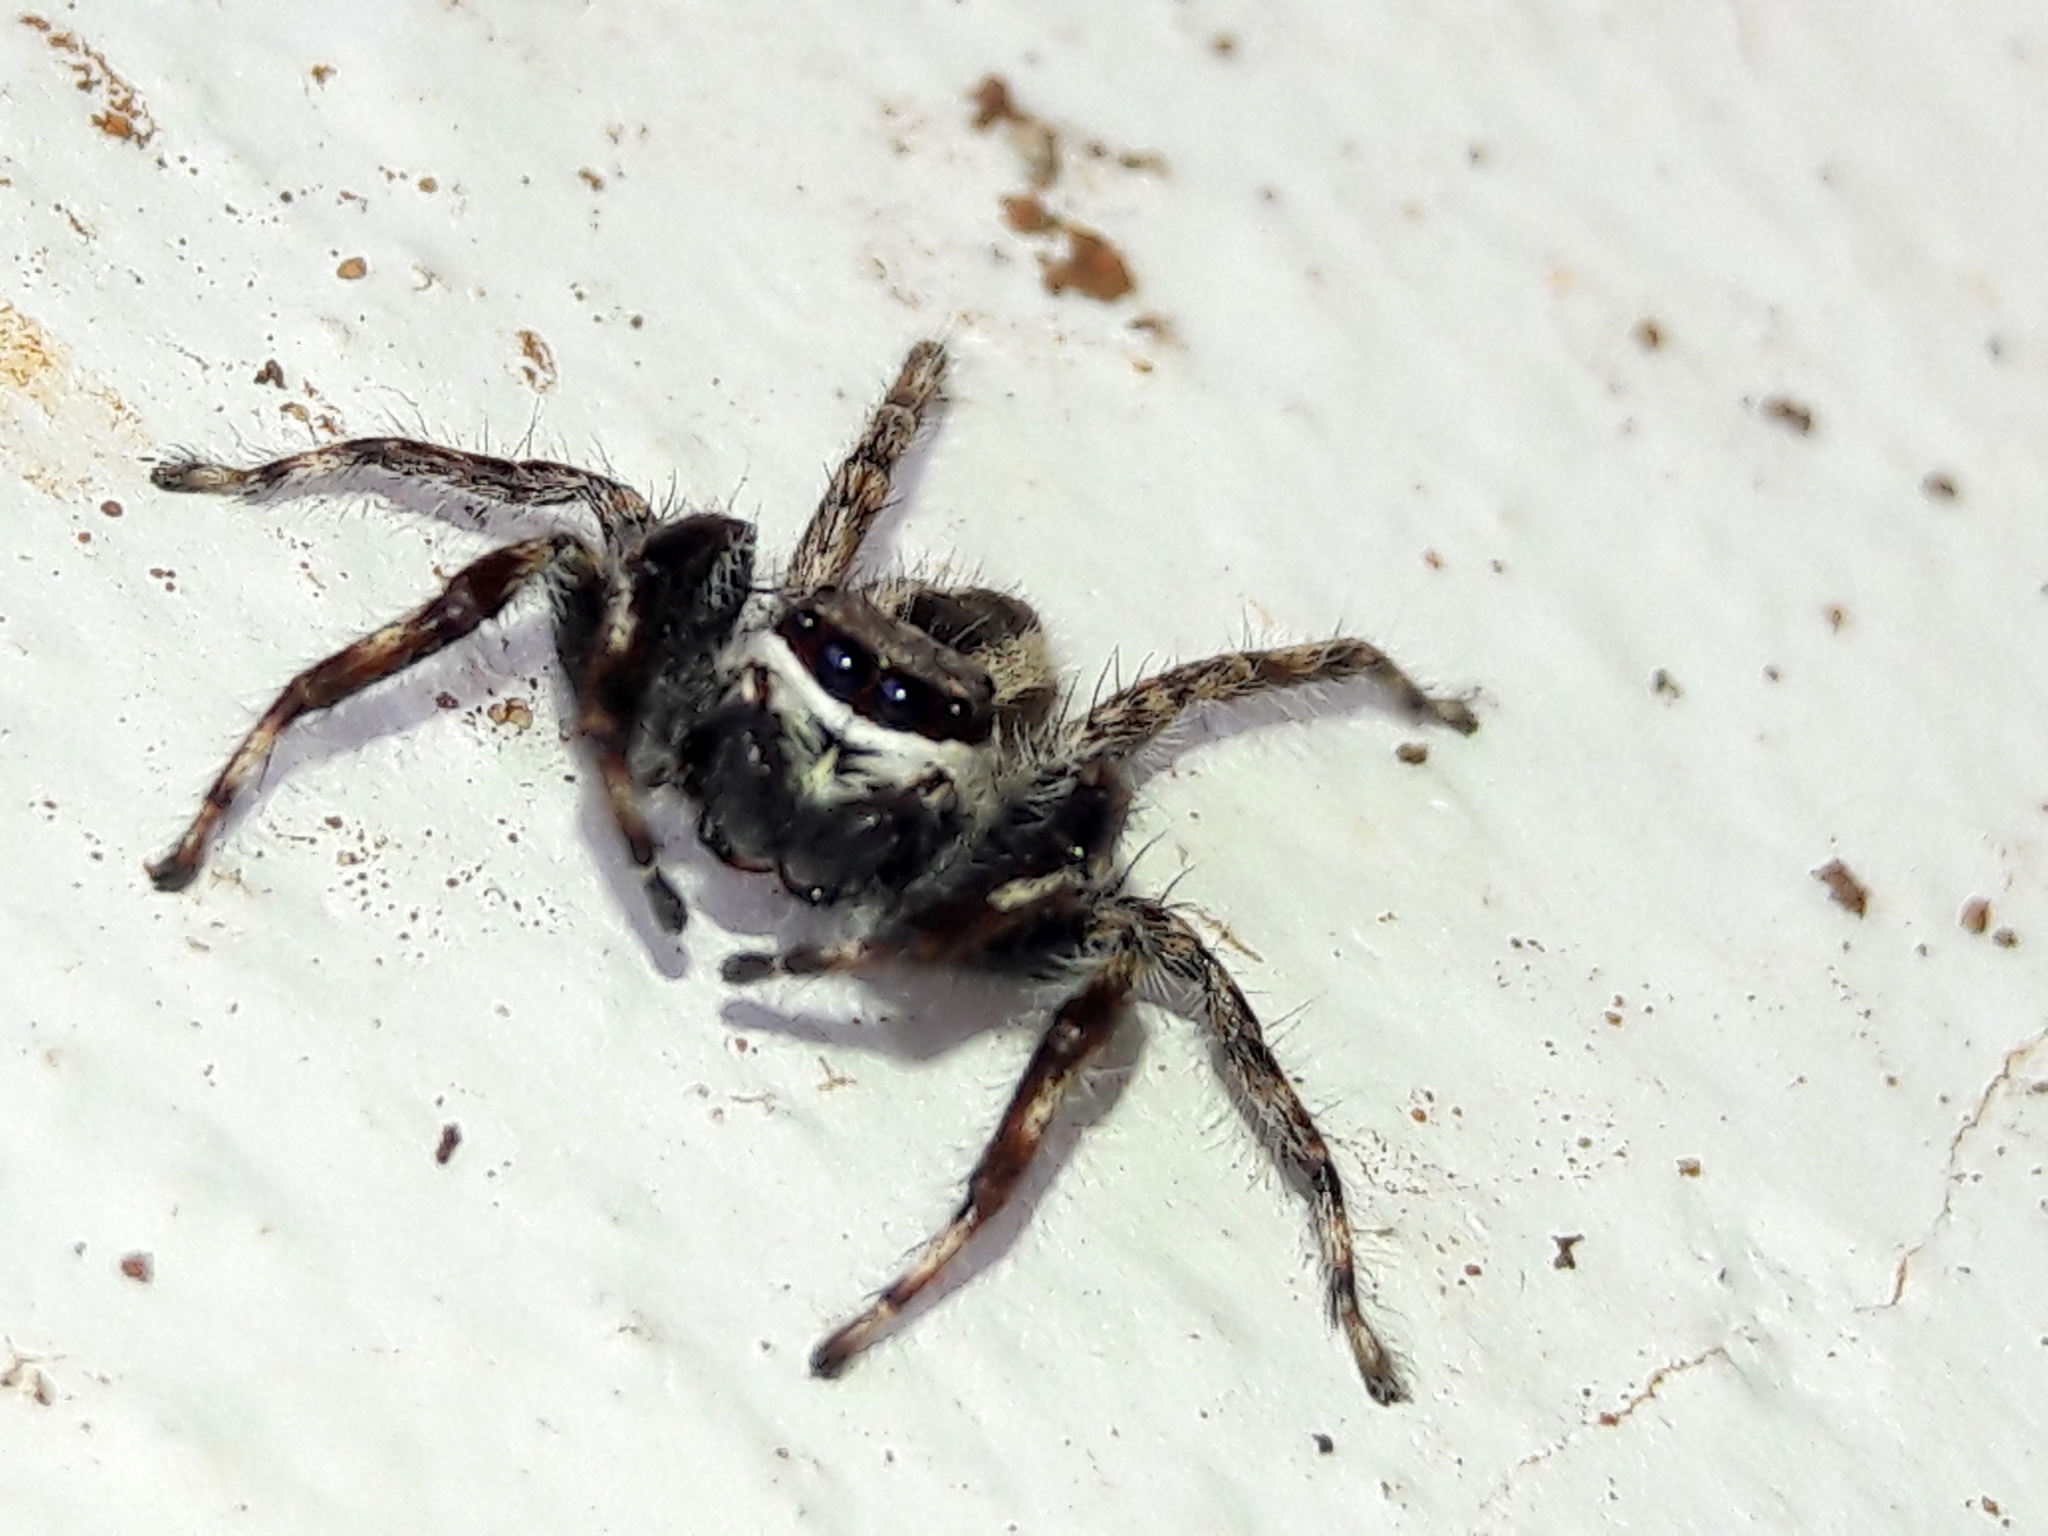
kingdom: Animalia
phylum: Arthropoda
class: Arachnida
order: Araneae
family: Salticidae
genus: Menemerus
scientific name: Menemerus bivittatus
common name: Gray wall jumper
